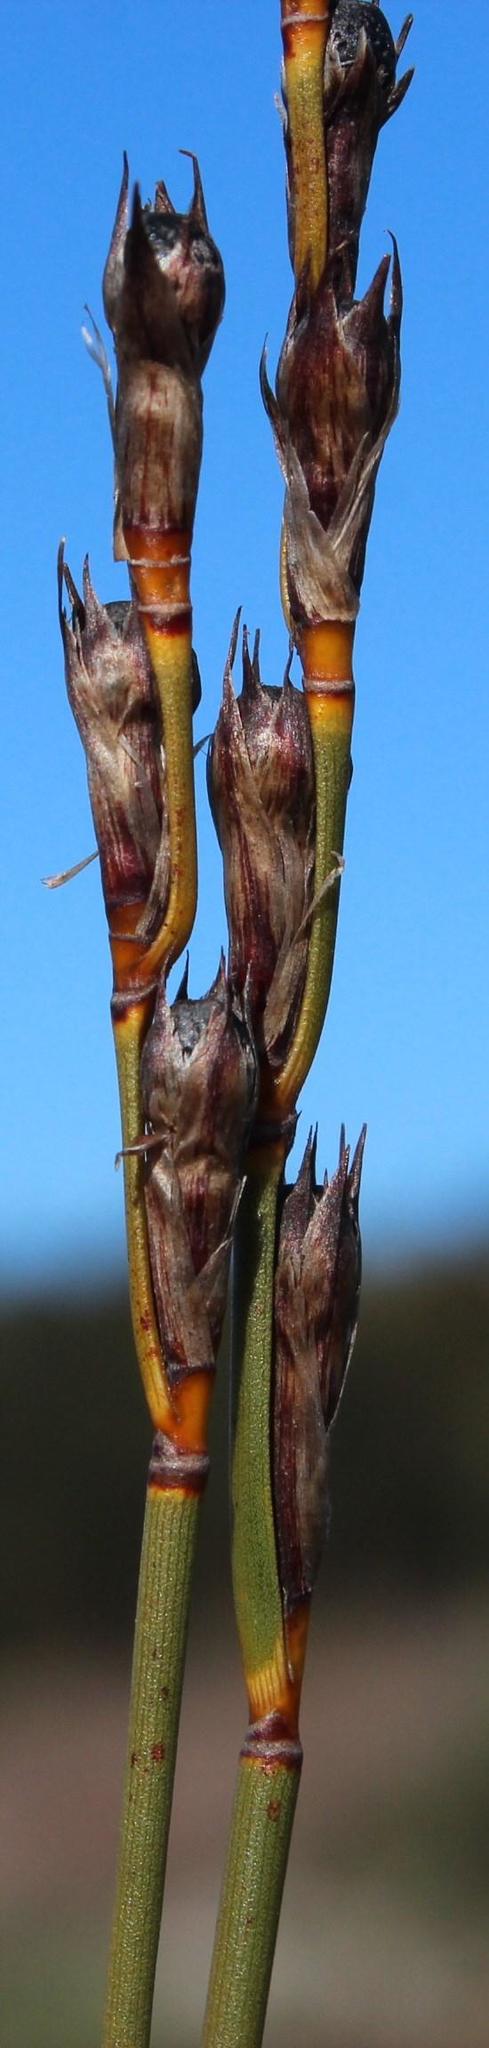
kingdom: Plantae
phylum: Tracheophyta
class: Liliopsida
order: Poales
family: Restionaceae
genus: Willdenowia
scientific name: Willdenowia incurvata
